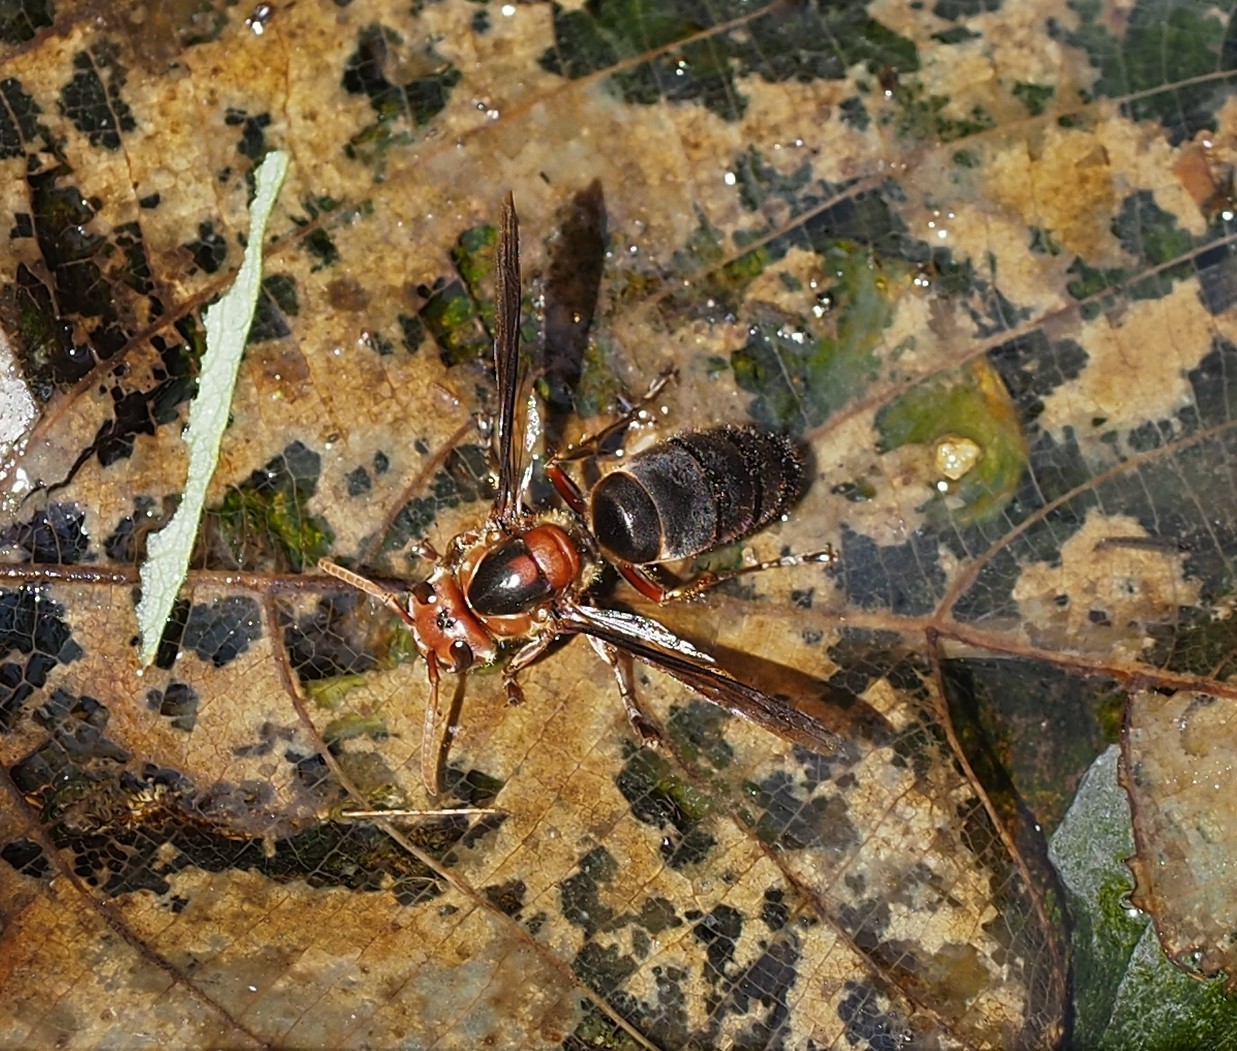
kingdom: Animalia
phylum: Arthropoda
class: Insecta
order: Hymenoptera
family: Vespidae
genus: Vespa
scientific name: Vespa basalis
